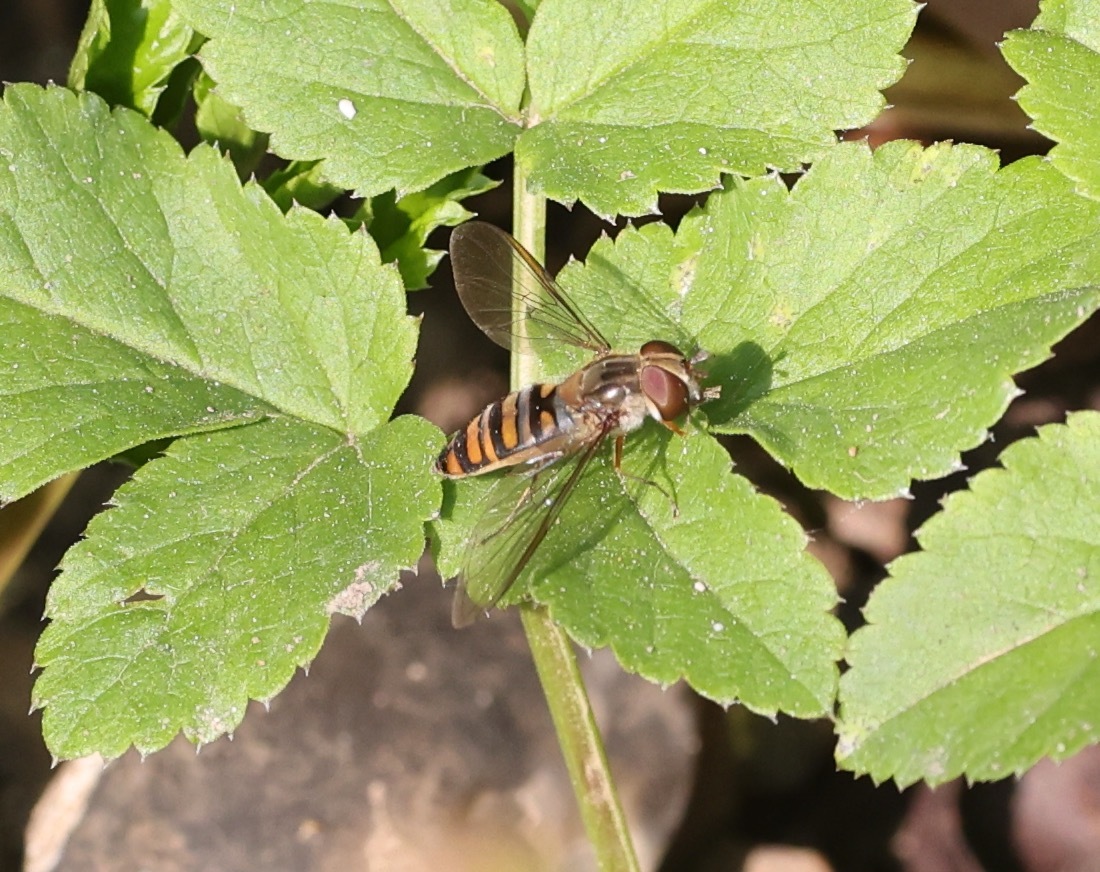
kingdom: Animalia
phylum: Arthropoda
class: Insecta
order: Diptera
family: Syrphidae
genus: Episyrphus
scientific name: Episyrphus balteatus
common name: Marmalade hoverfly
